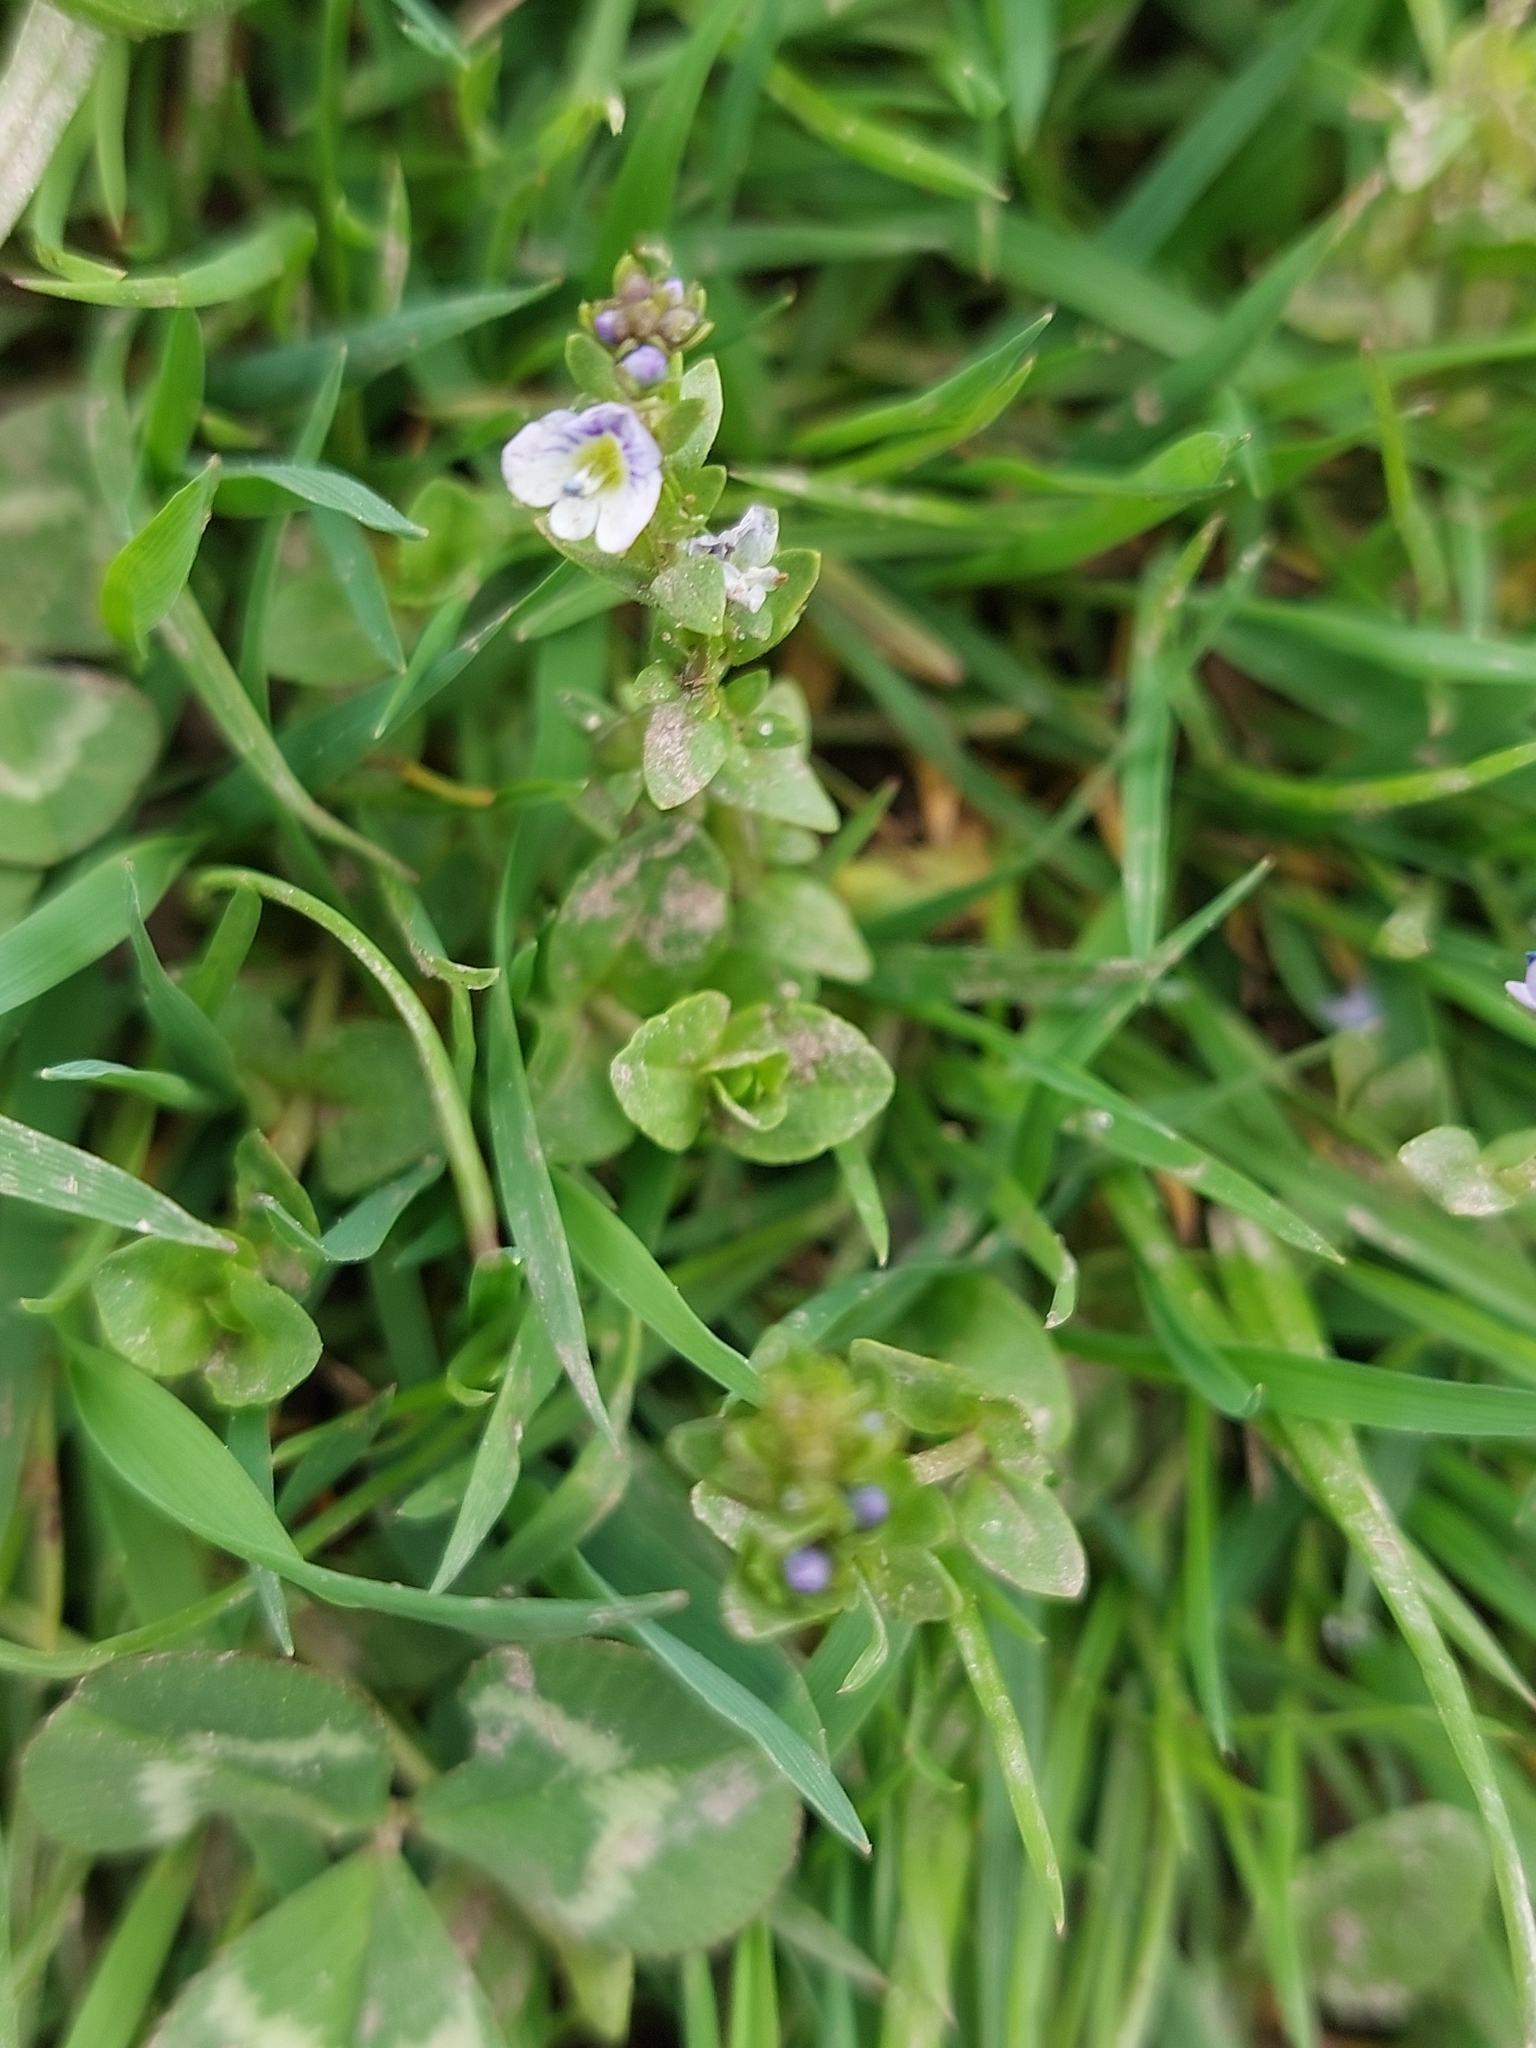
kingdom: Plantae
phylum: Tracheophyta
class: Magnoliopsida
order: Lamiales
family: Plantaginaceae
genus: Veronica
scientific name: Veronica serpyllifolia
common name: Thyme-leaved speedwell
